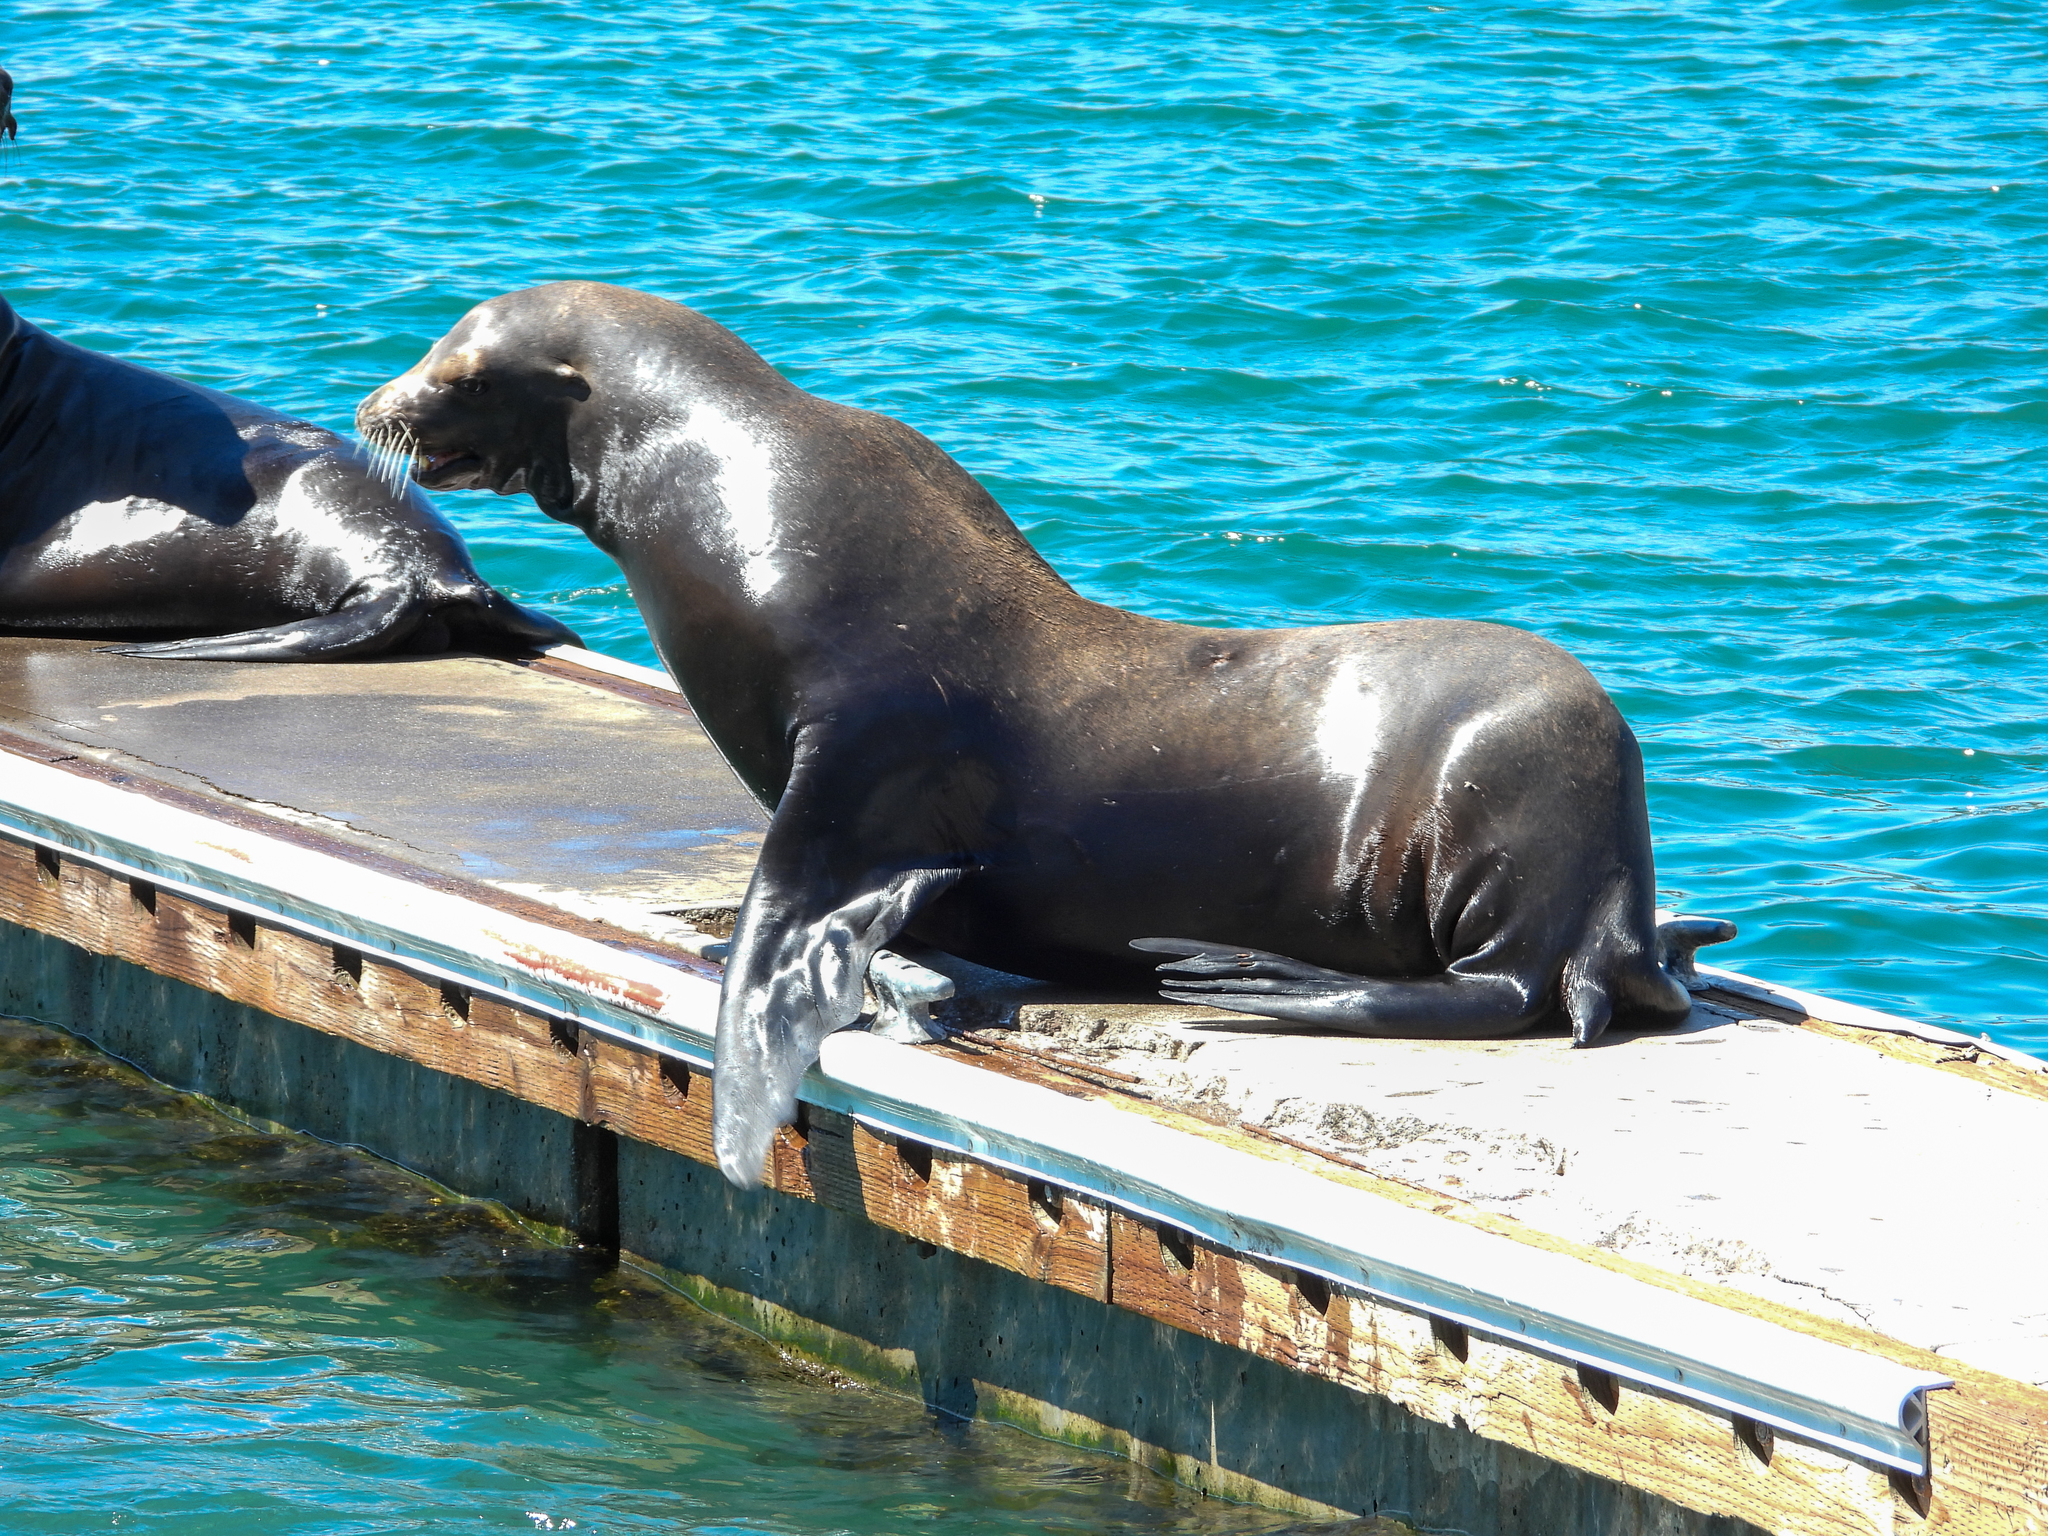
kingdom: Animalia
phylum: Chordata
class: Mammalia
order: Carnivora
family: Otariidae
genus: Zalophus
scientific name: Zalophus californianus
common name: California sea lion
